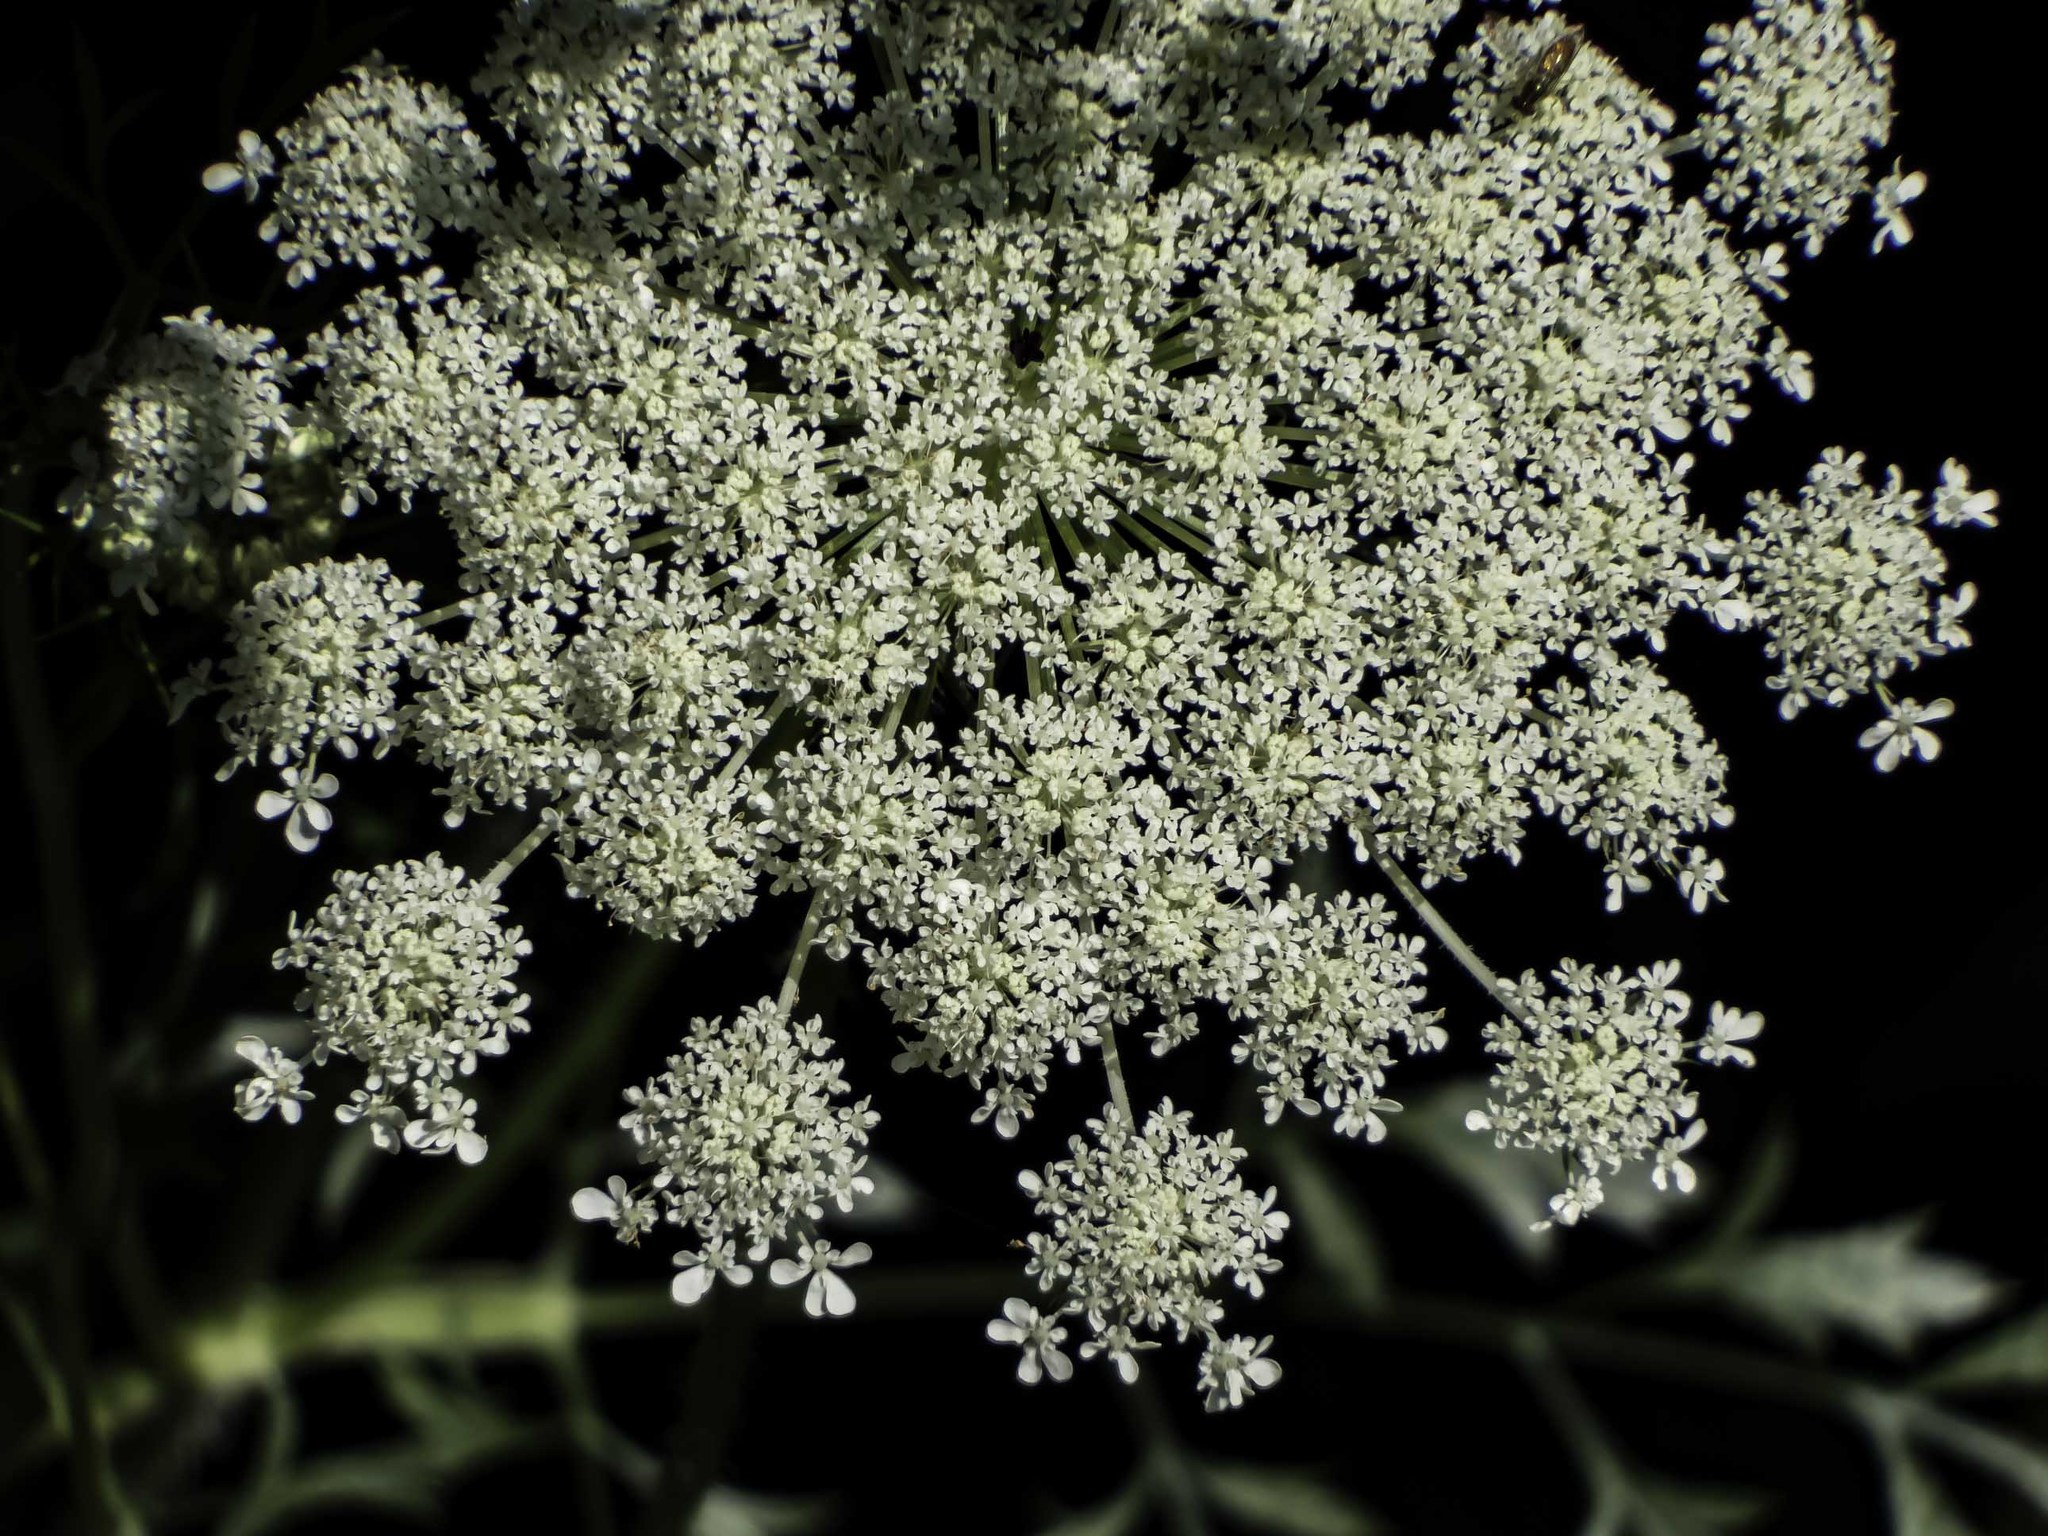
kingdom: Plantae
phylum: Tracheophyta
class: Magnoliopsida
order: Apiales
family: Apiaceae
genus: Daucus
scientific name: Daucus carota
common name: Wild carrot
